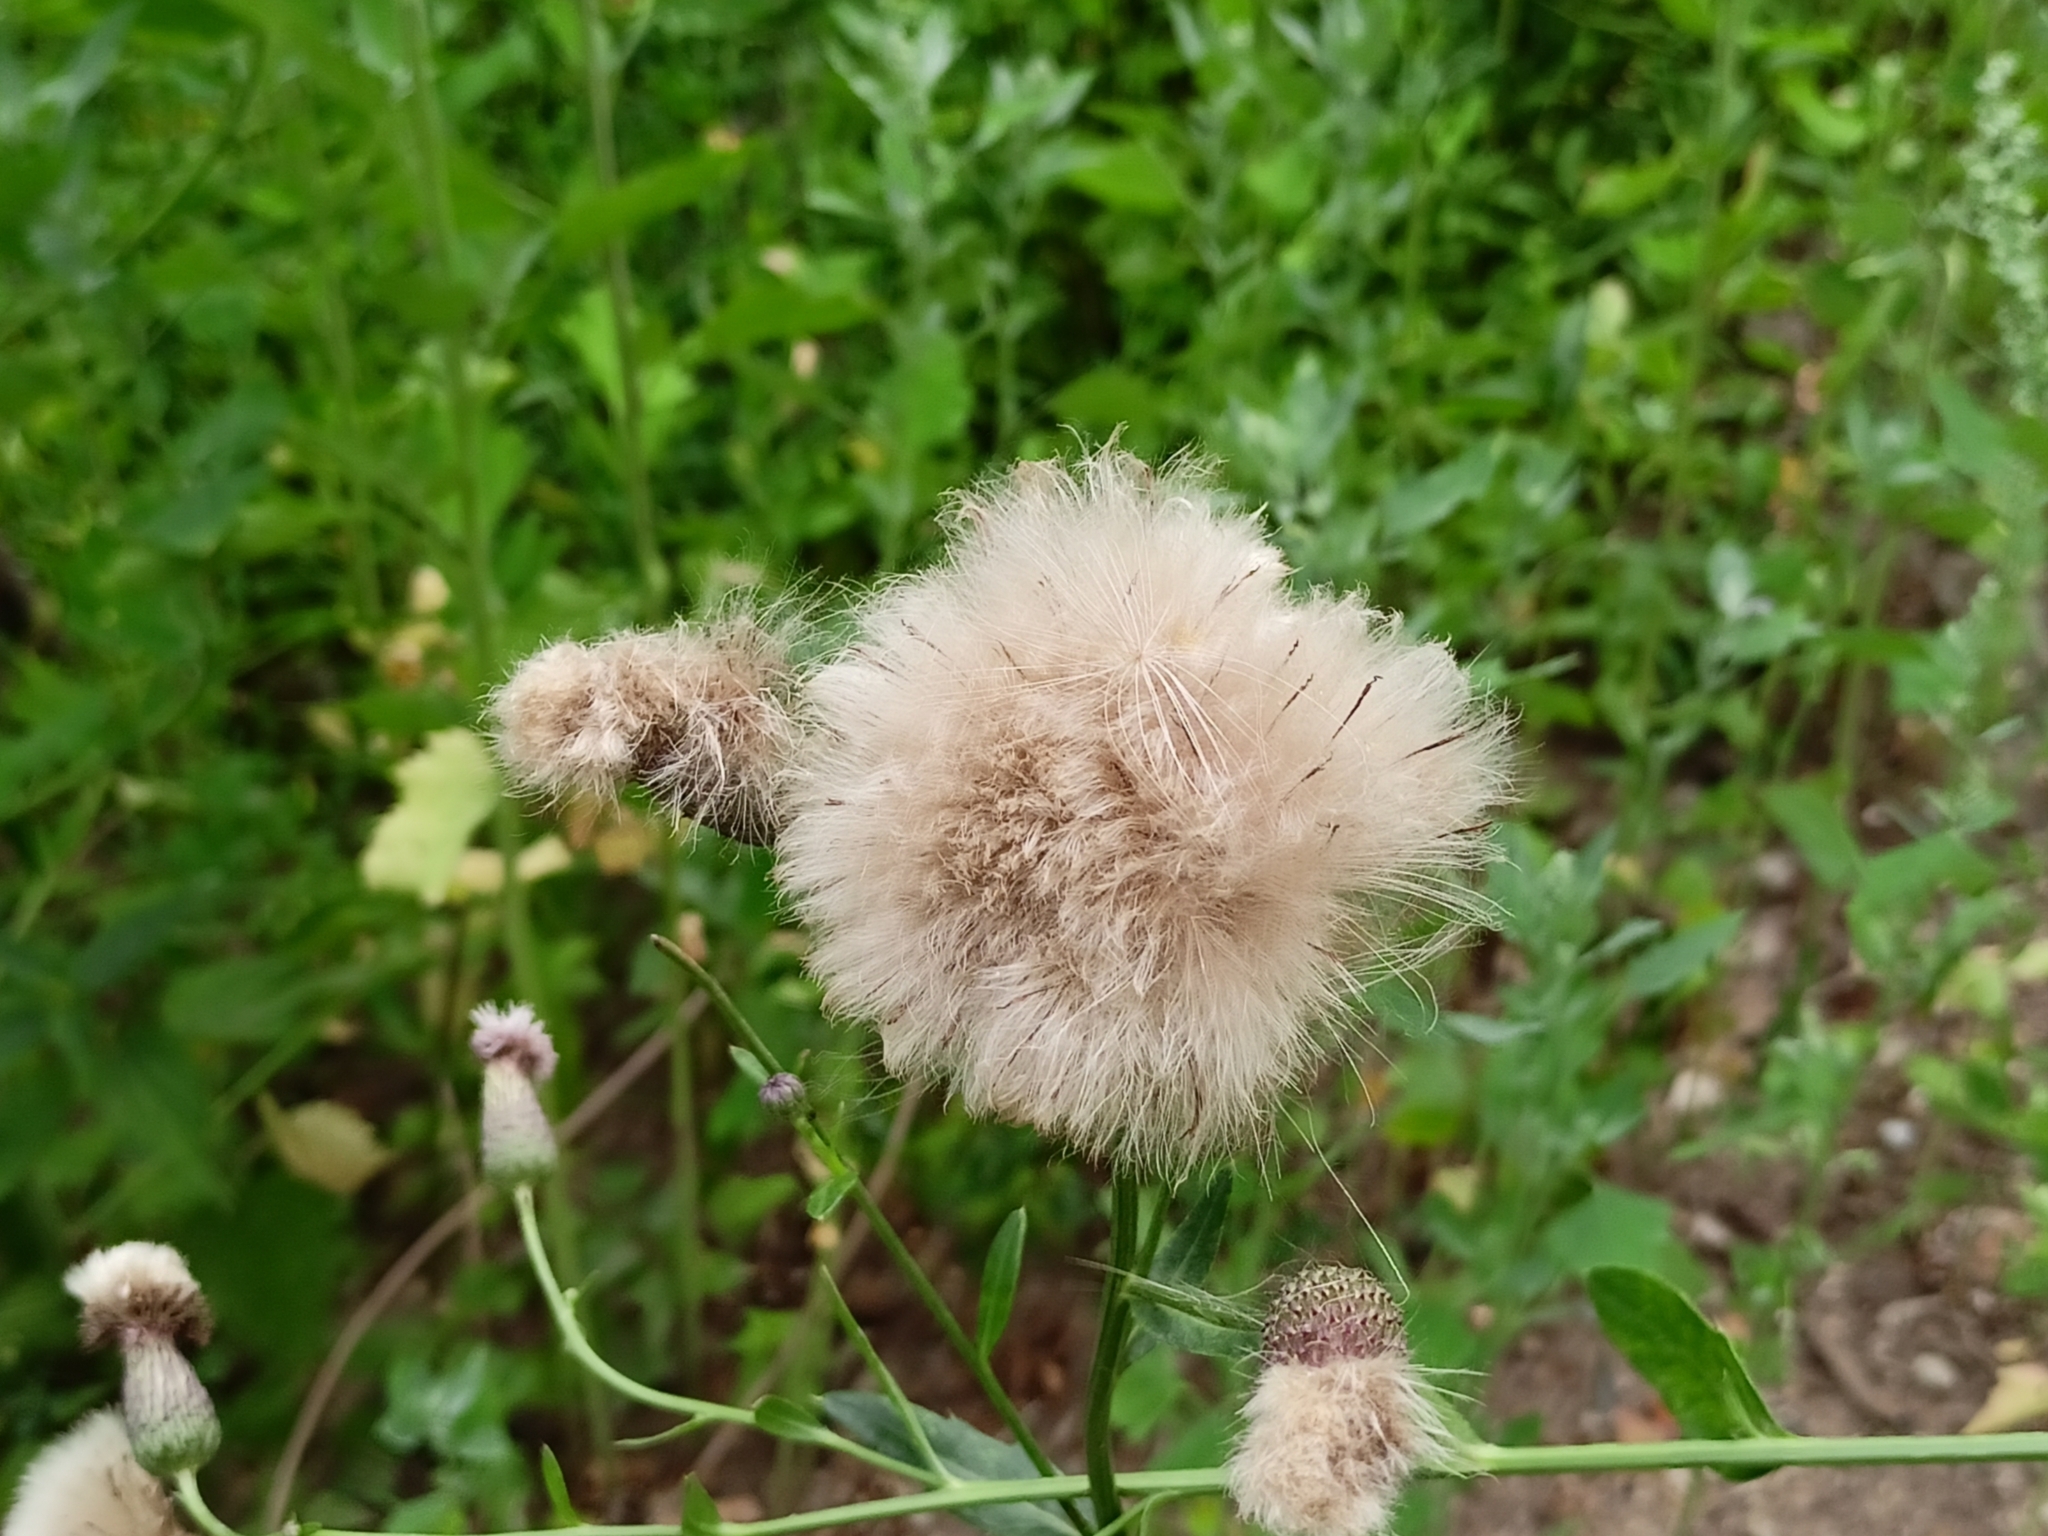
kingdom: Plantae
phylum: Tracheophyta
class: Magnoliopsida
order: Asterales
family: Asteraceae
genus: Cirsium
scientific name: Cirsium arvense
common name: Creeping thistle
